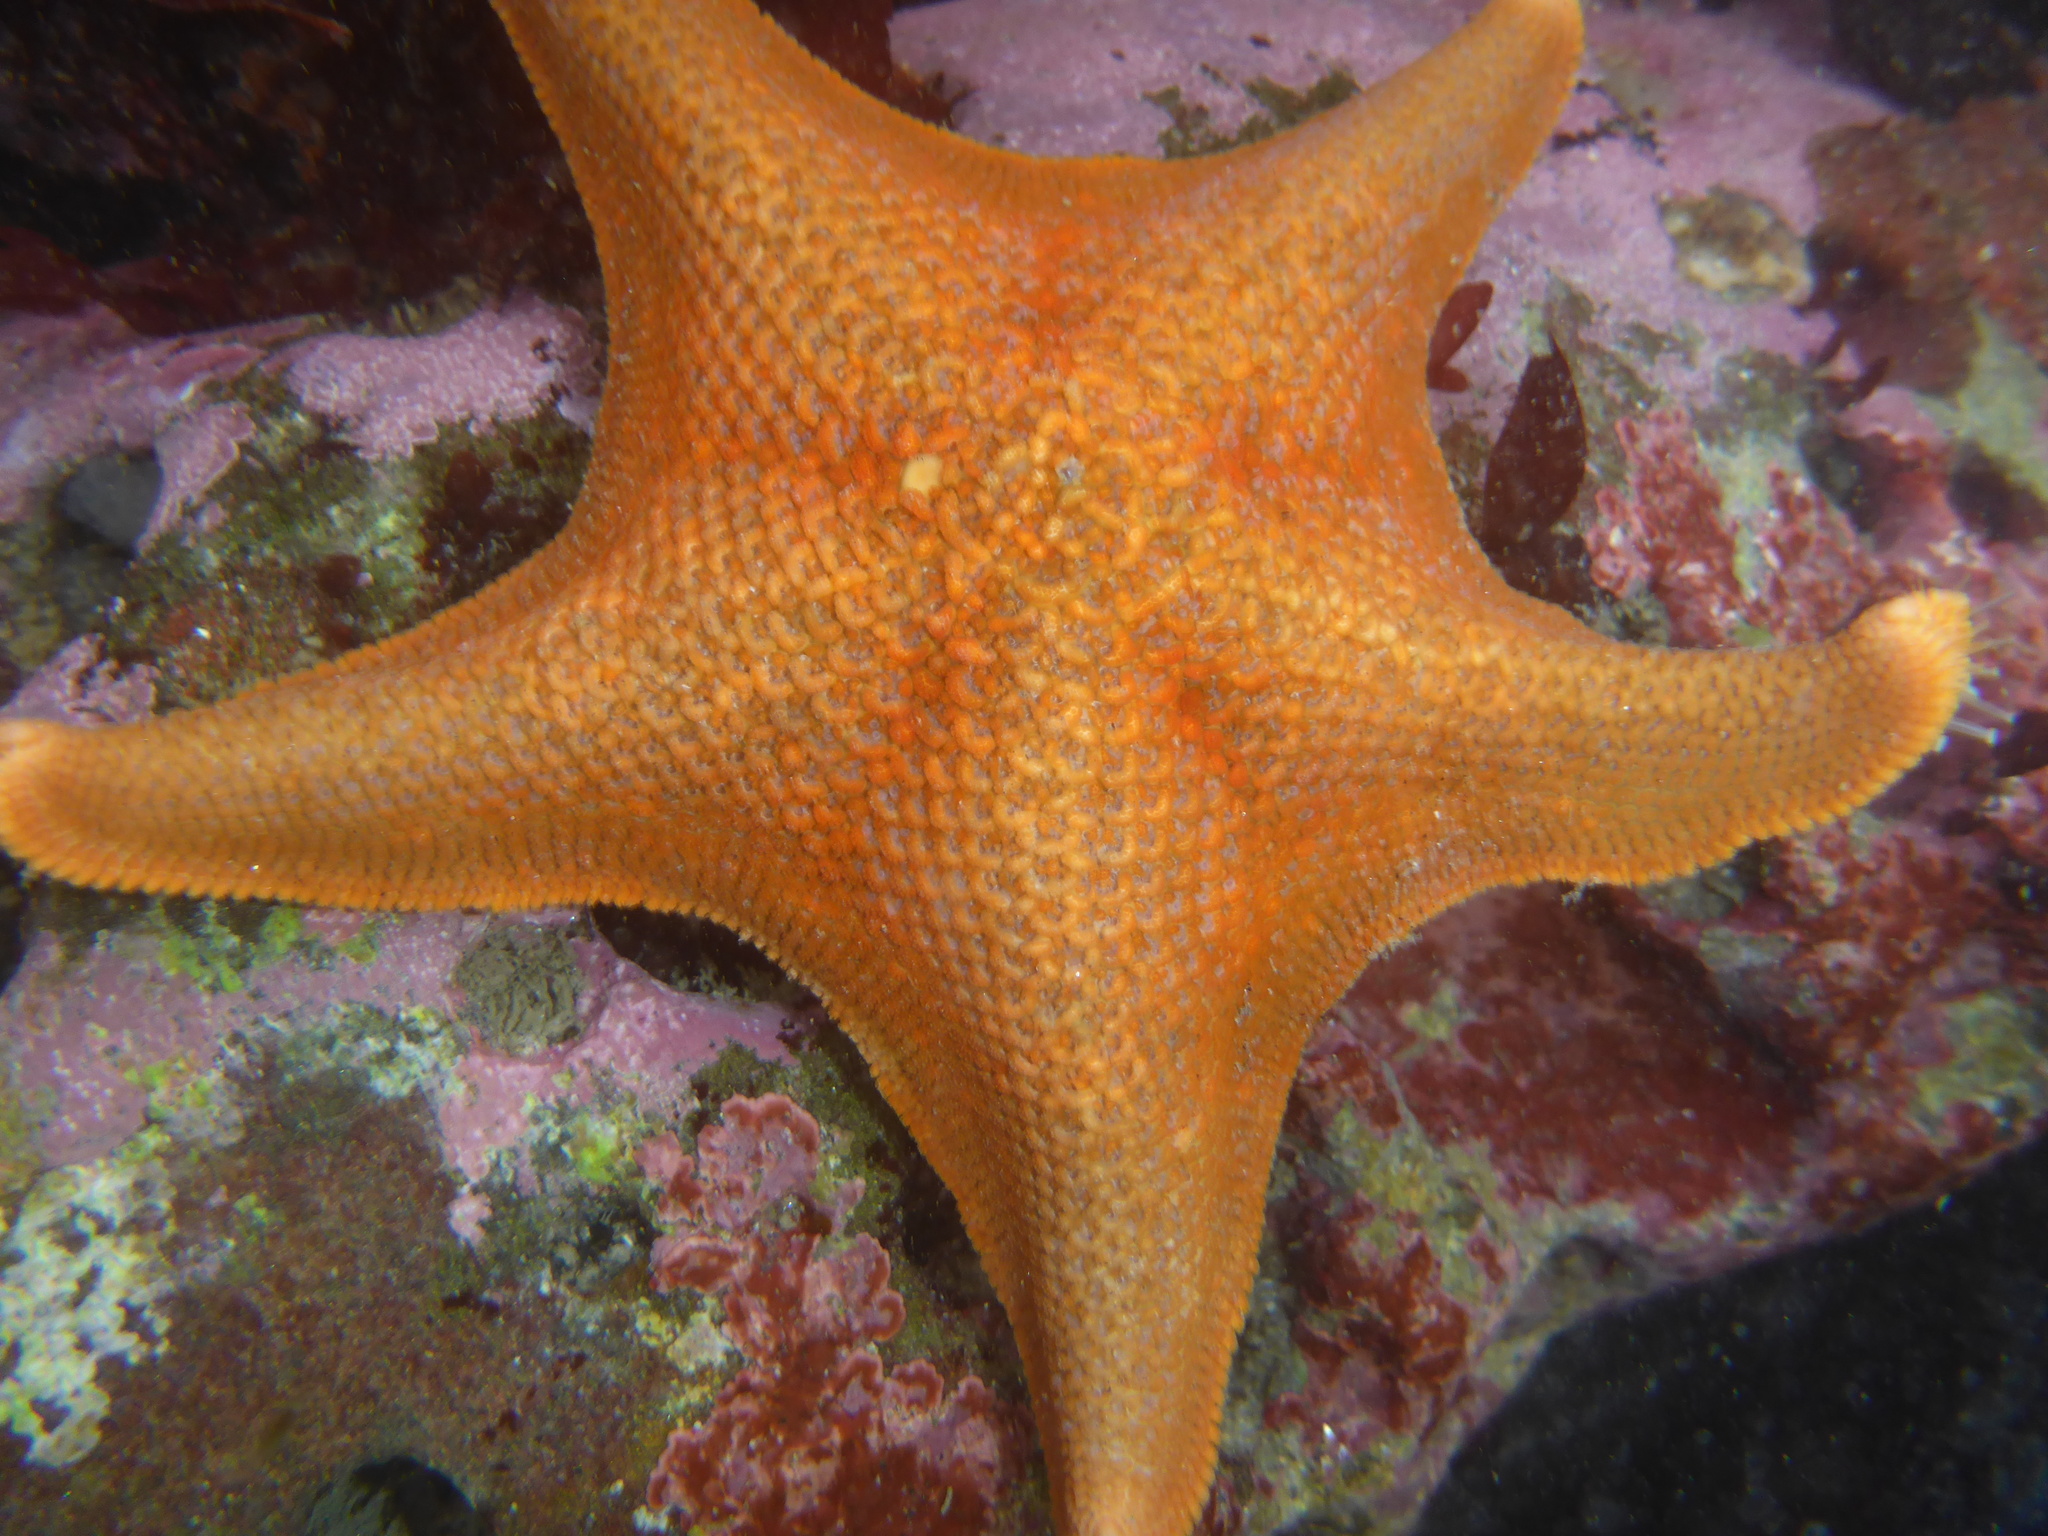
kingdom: Animalia
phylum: Echinodermata
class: Asteroidea
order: Valvatida
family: Asterinidae
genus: Patiria
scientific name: Patiria miniata
